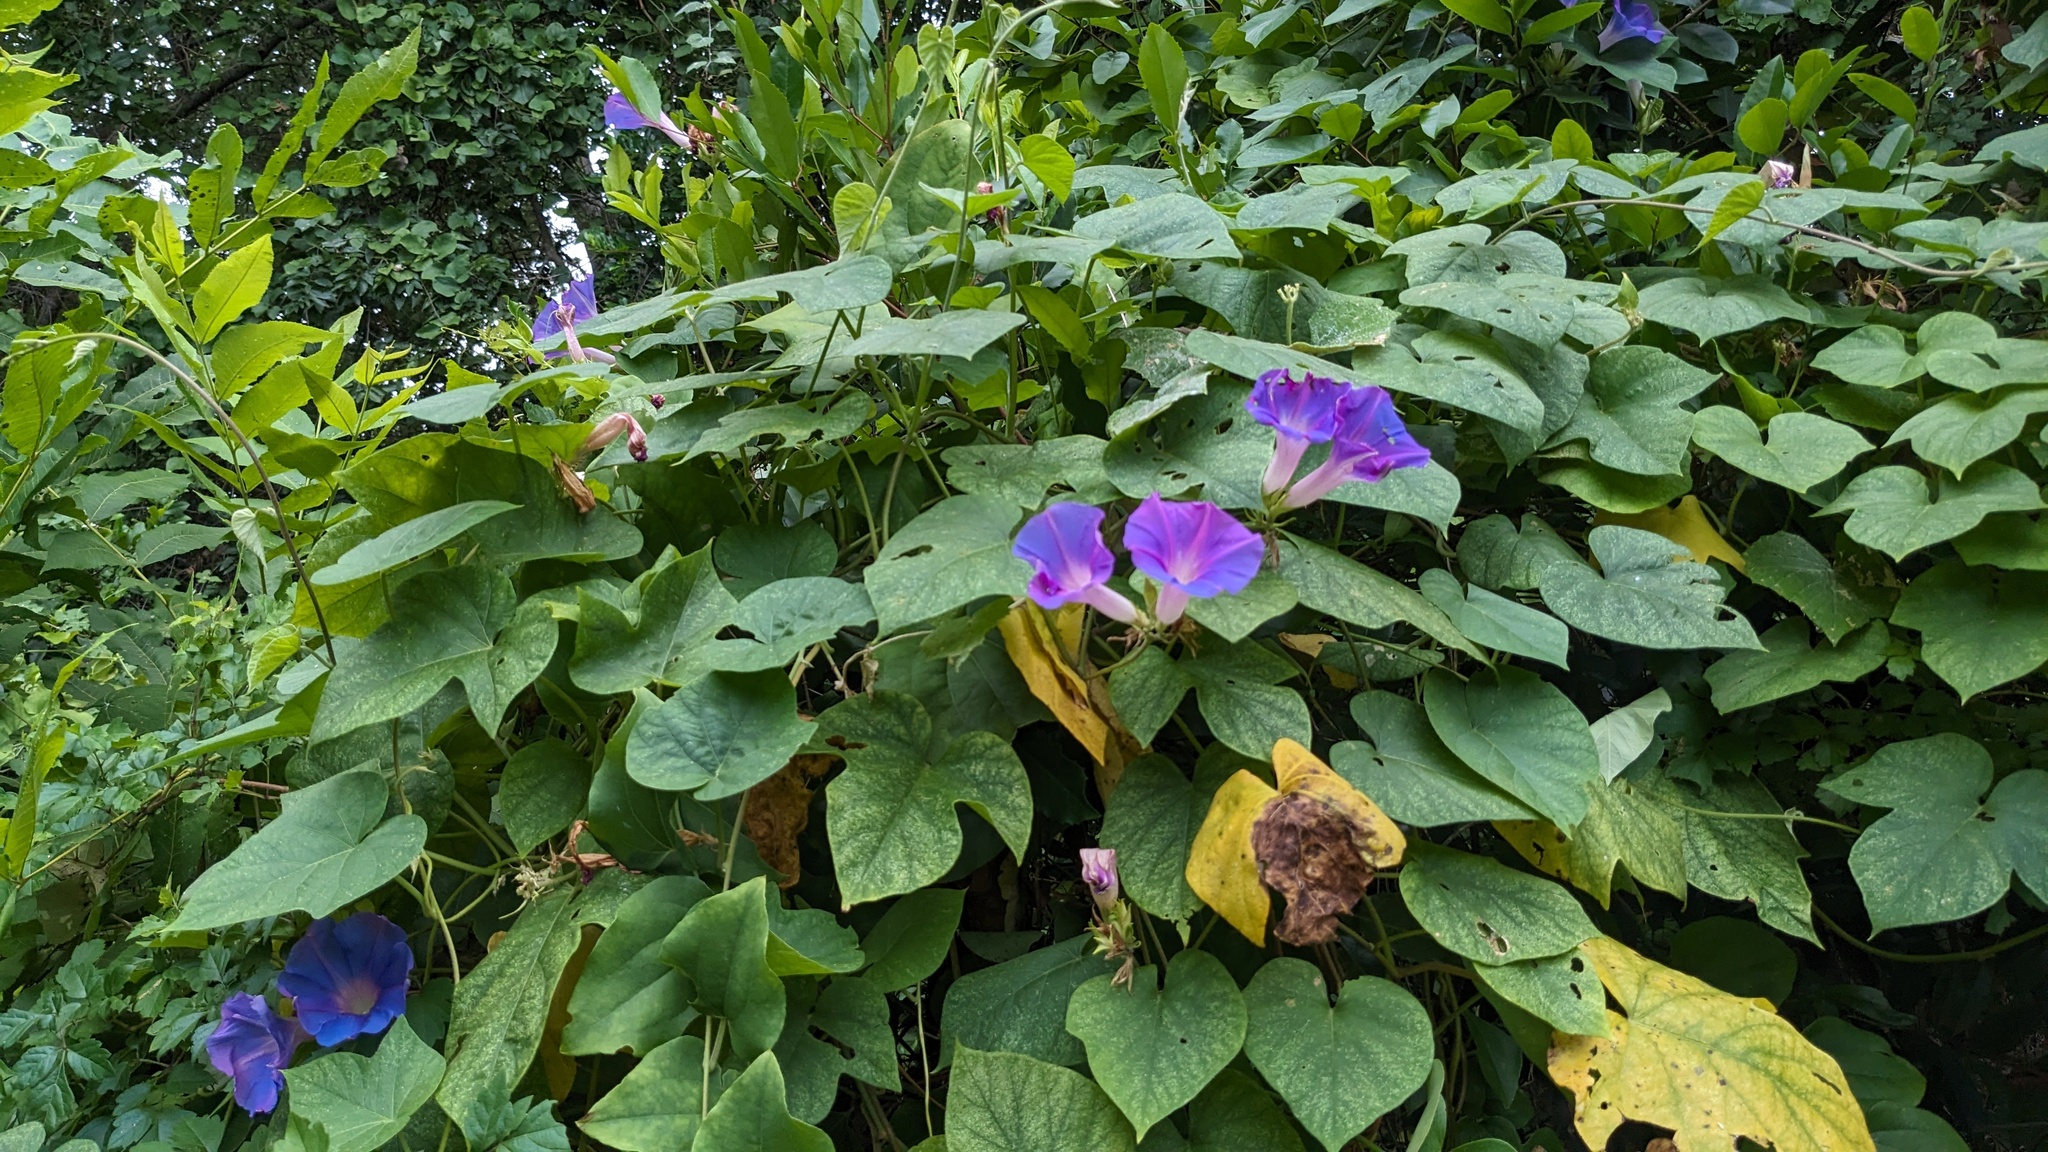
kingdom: Plantae
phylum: Tracheophyta
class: Magnoliopsida
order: Solanales
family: Convolvulaceae
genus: Ipomoea
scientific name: Ipomoea indica
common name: Blue dawnflower
